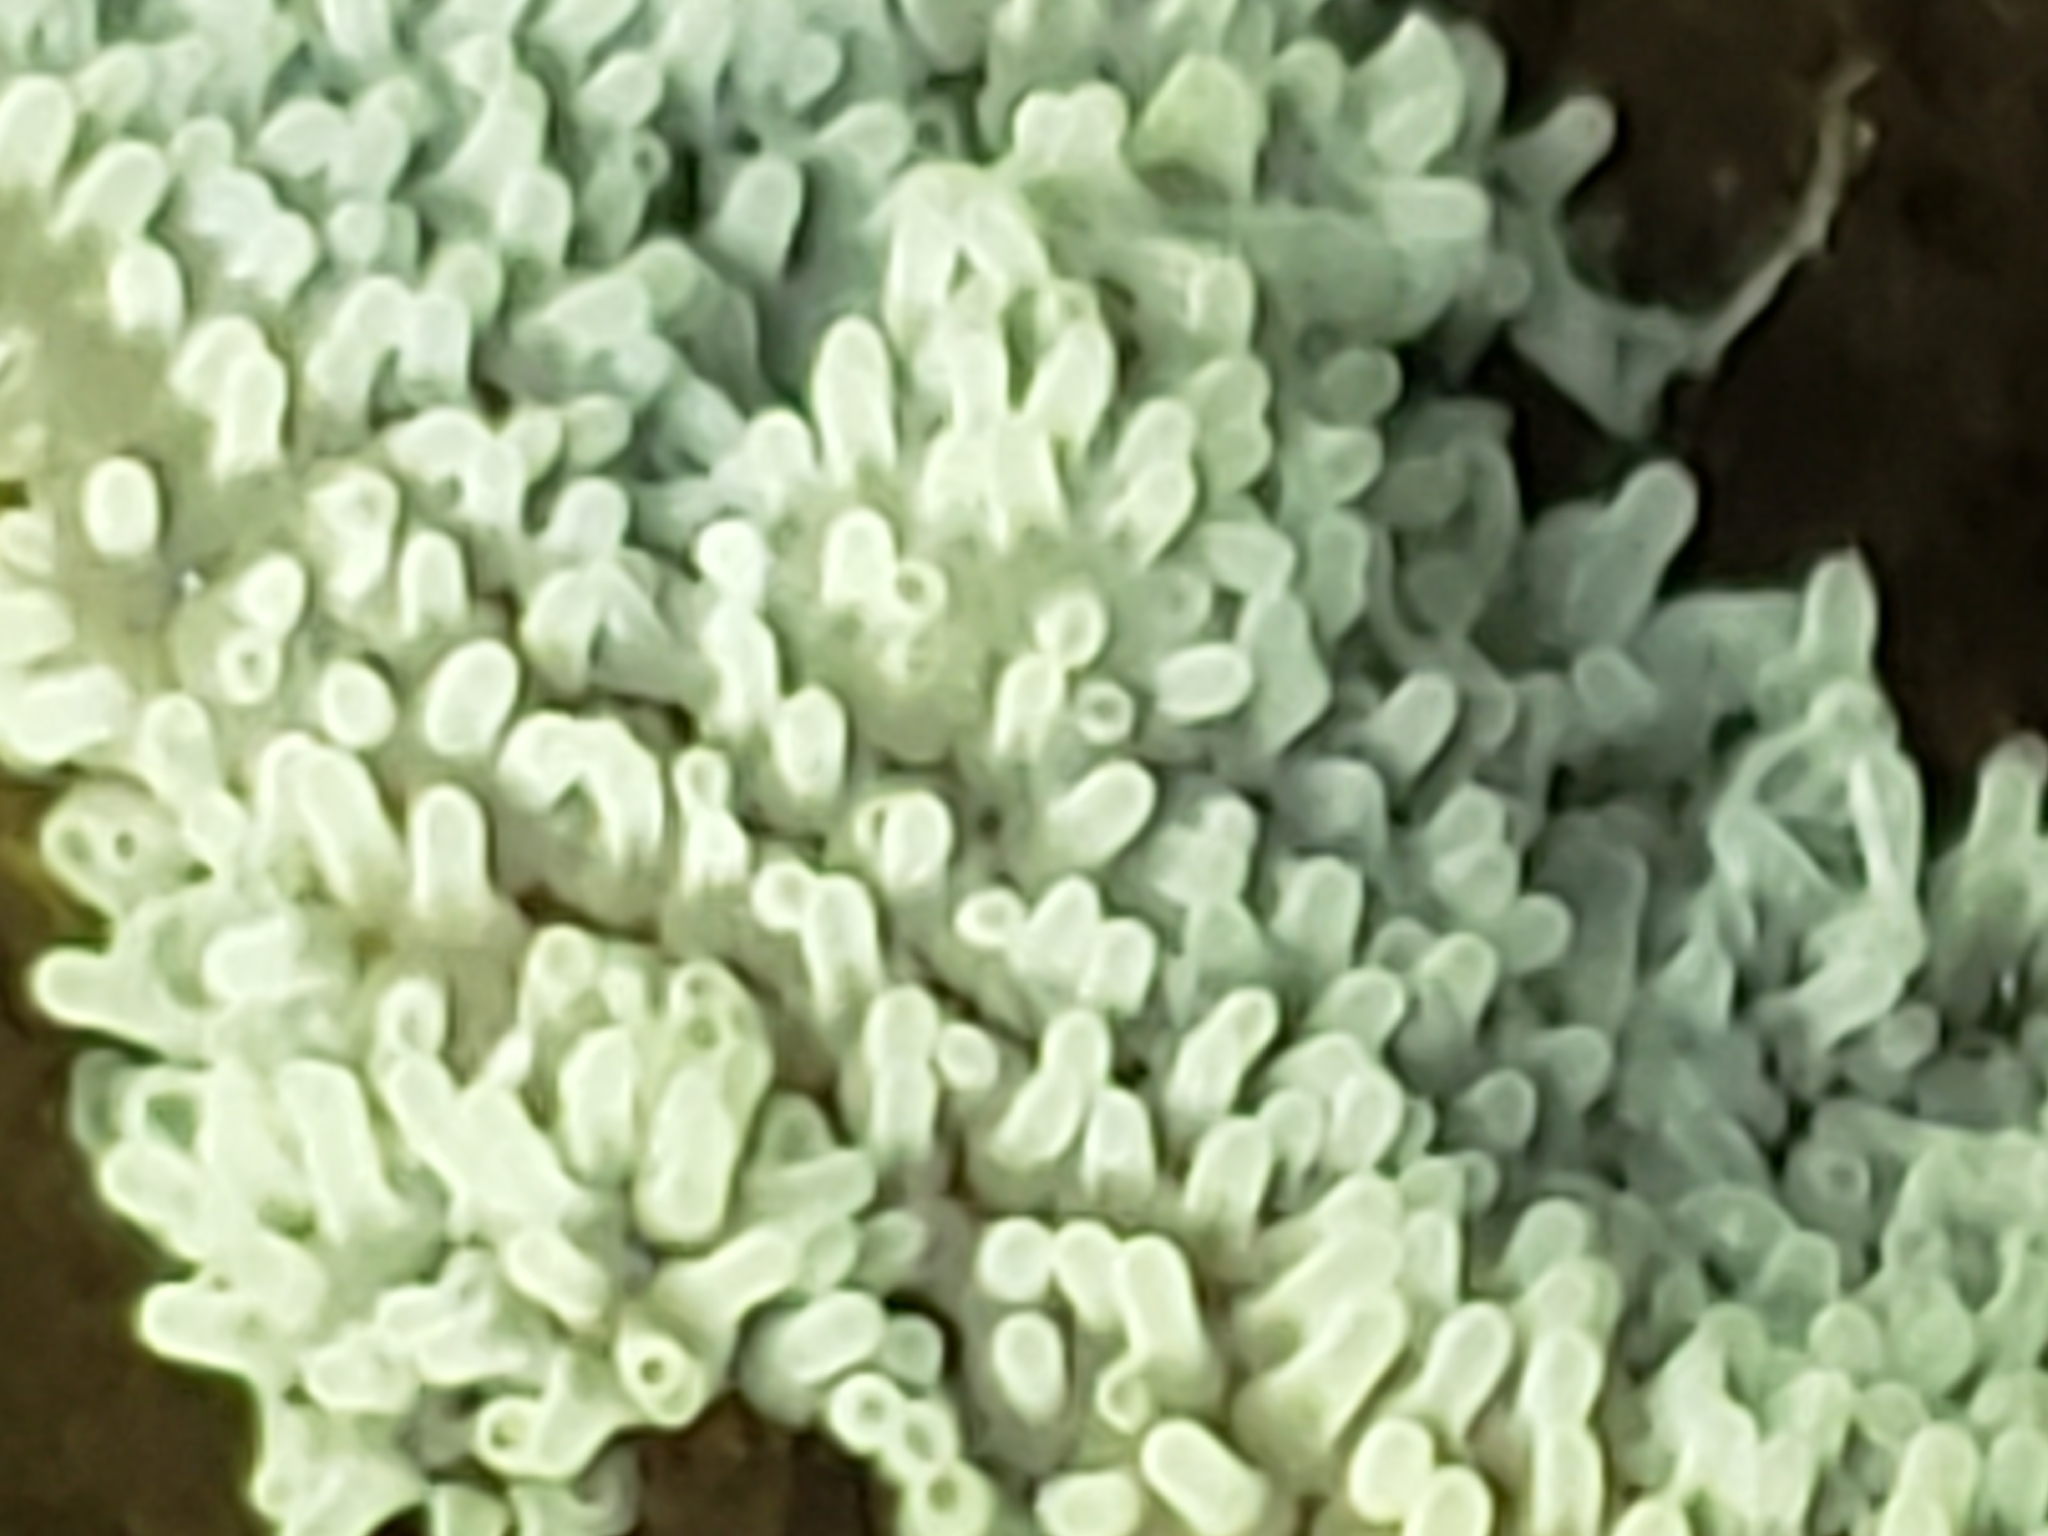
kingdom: Protozoa
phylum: Mycetozoa
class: Protosteliomycetes
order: Ceratiomyxales
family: Ceratiomyxaceae
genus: Ceratiomyxa
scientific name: Ceratiomyxa fruticulosa
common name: Honeycomb coral slime mold
